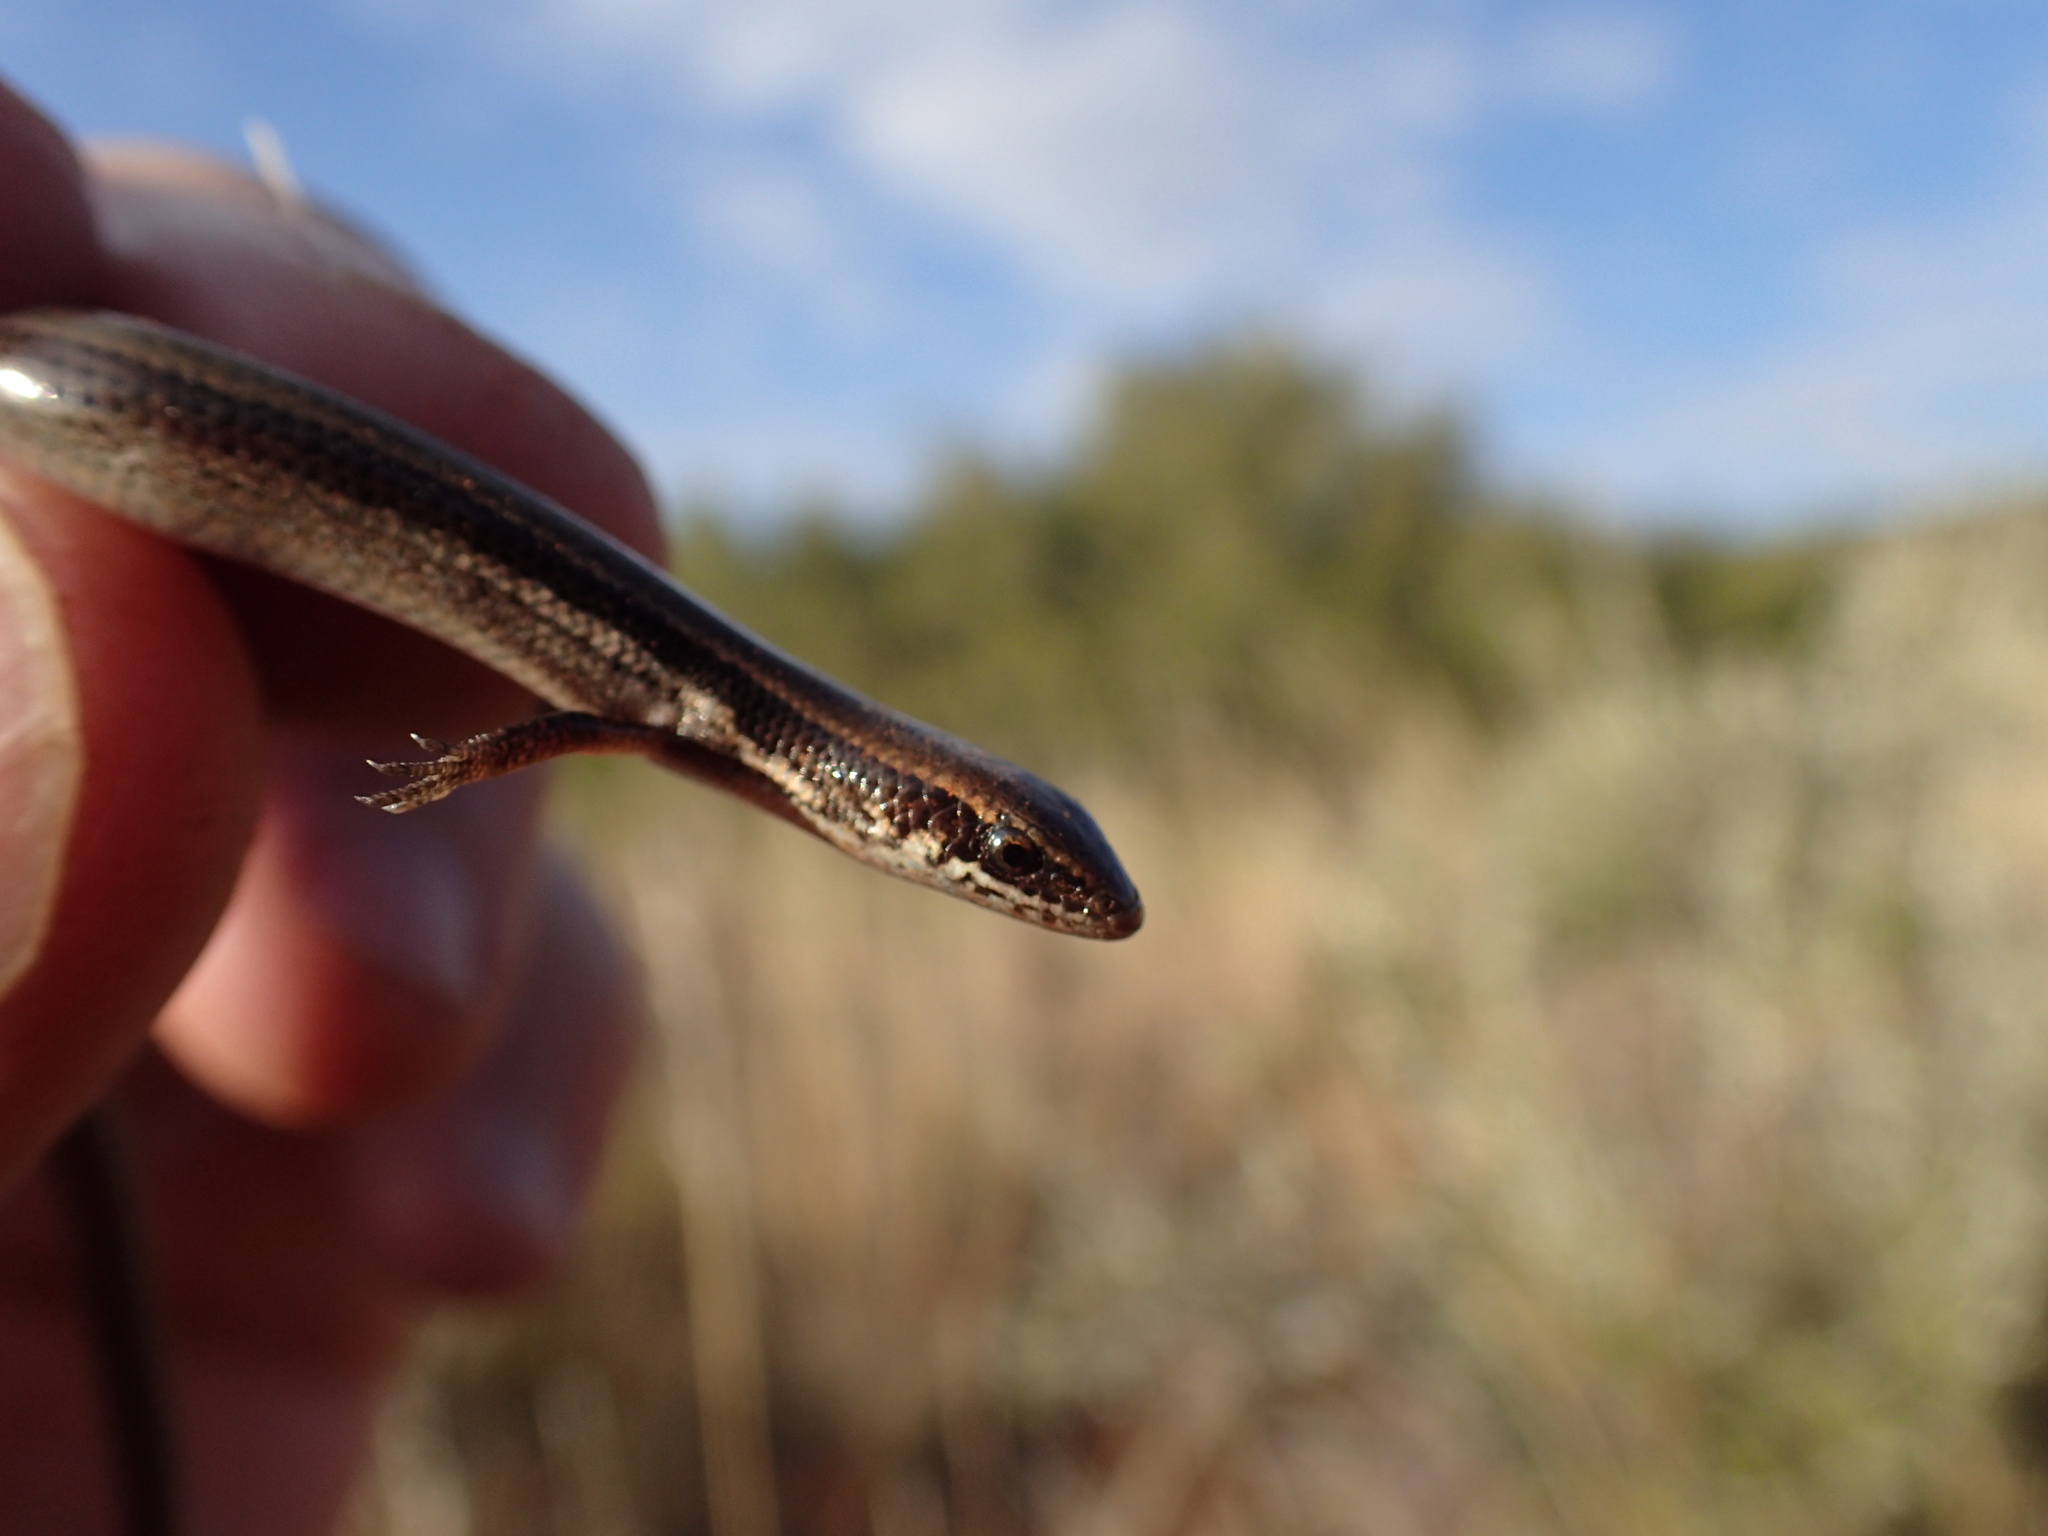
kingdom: Animalia
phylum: Chordata
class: Squamata
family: Scincidae
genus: Panaspis
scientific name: Panaspis wahlbergii
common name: Angolan snake-eyed skink
